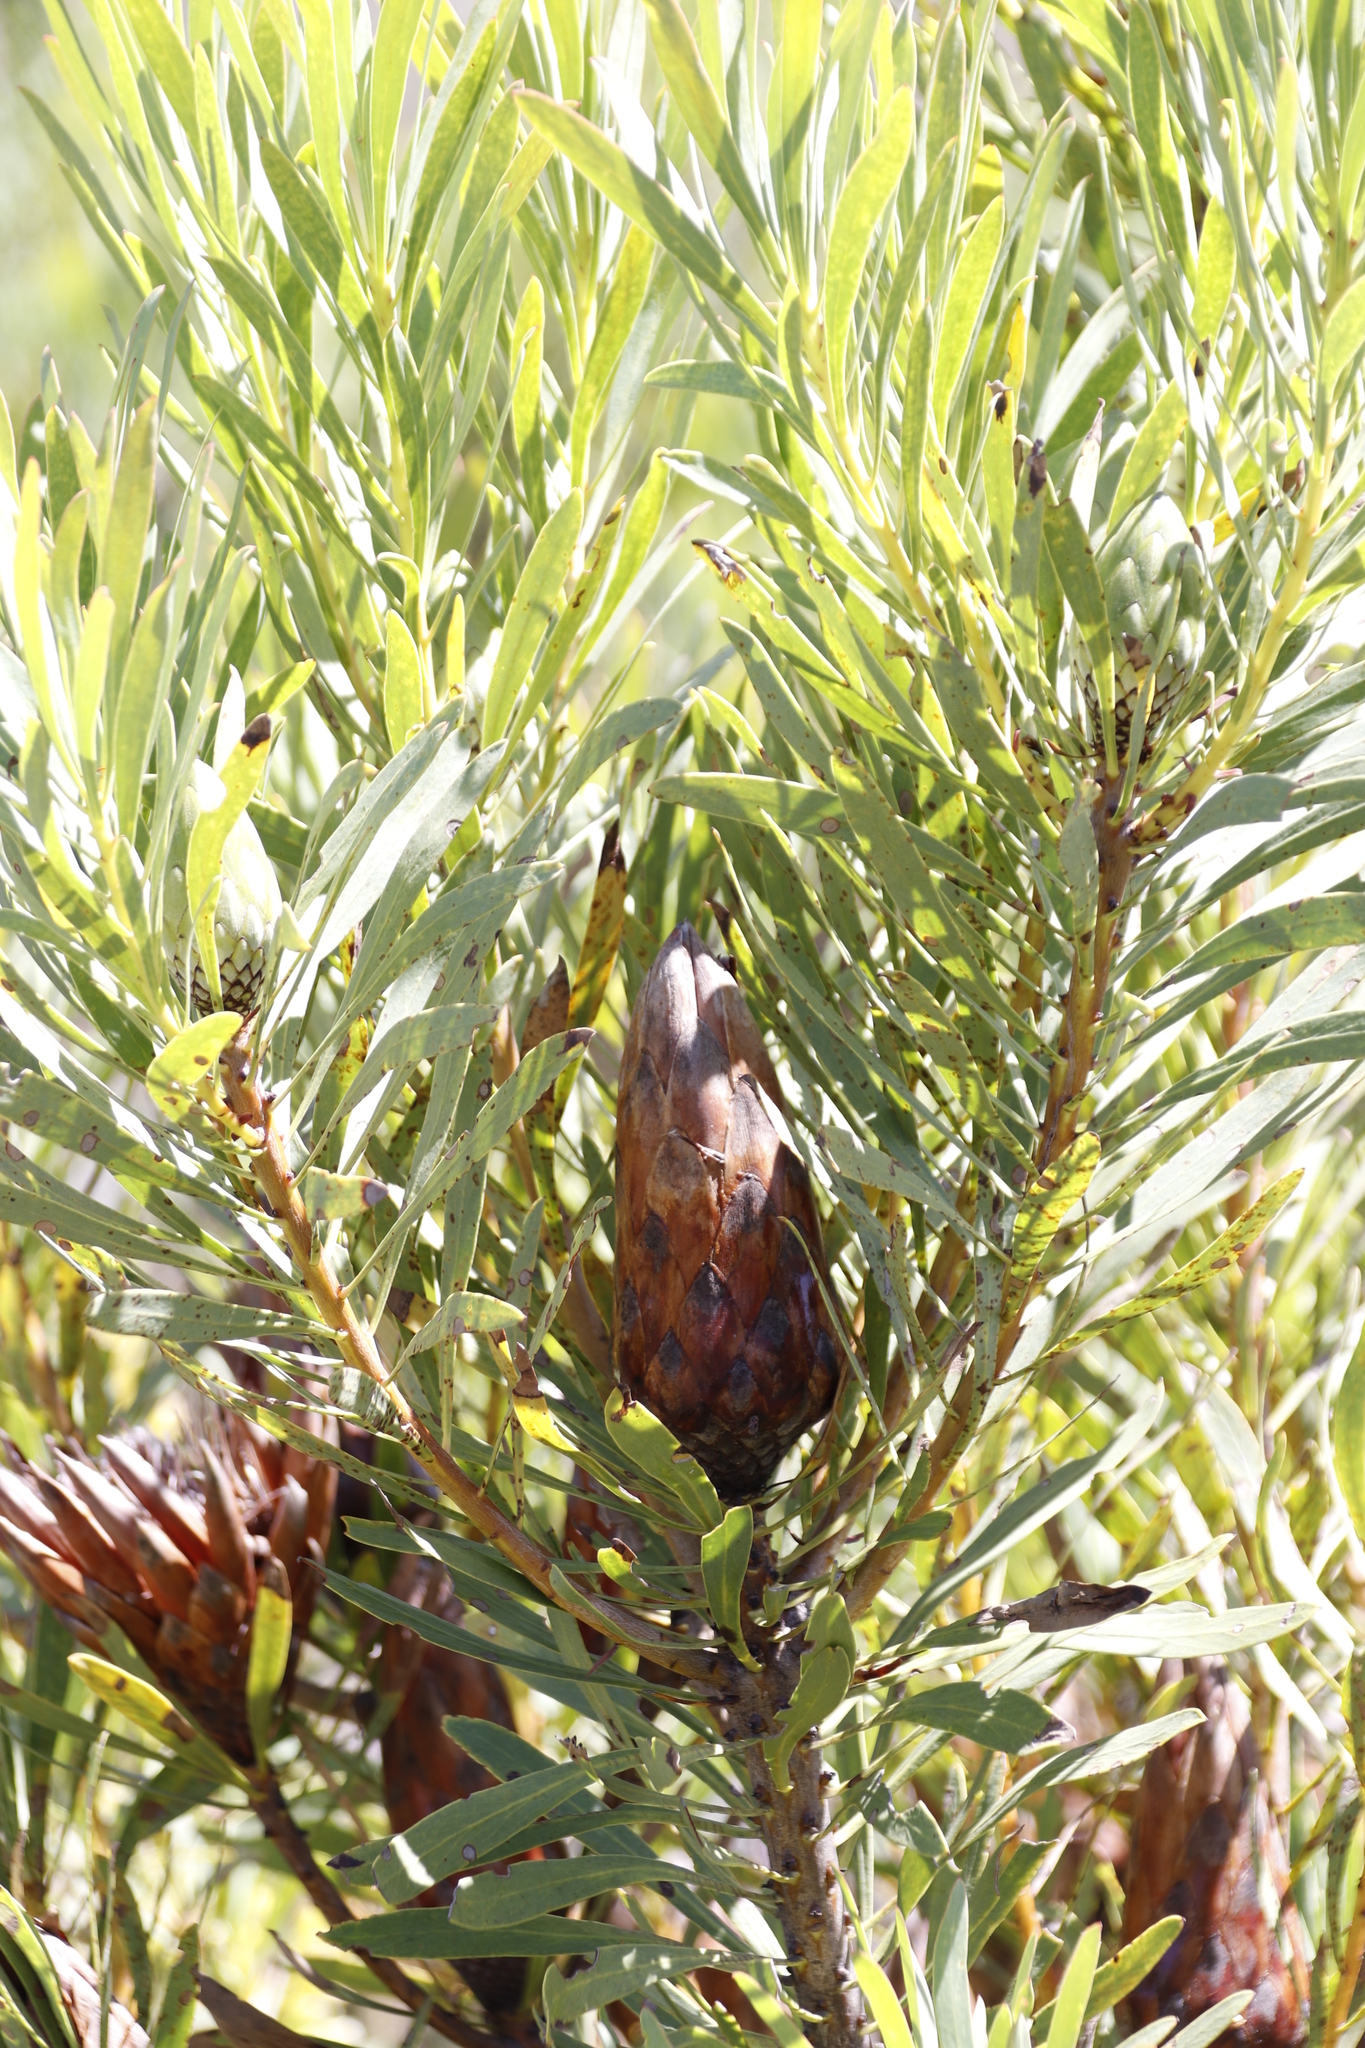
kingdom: Plantae
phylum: Tracheophyta
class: Magnoliopsida
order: Proteales
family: Proteaceae
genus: Protea
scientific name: Protea repens
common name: Sugarbush
